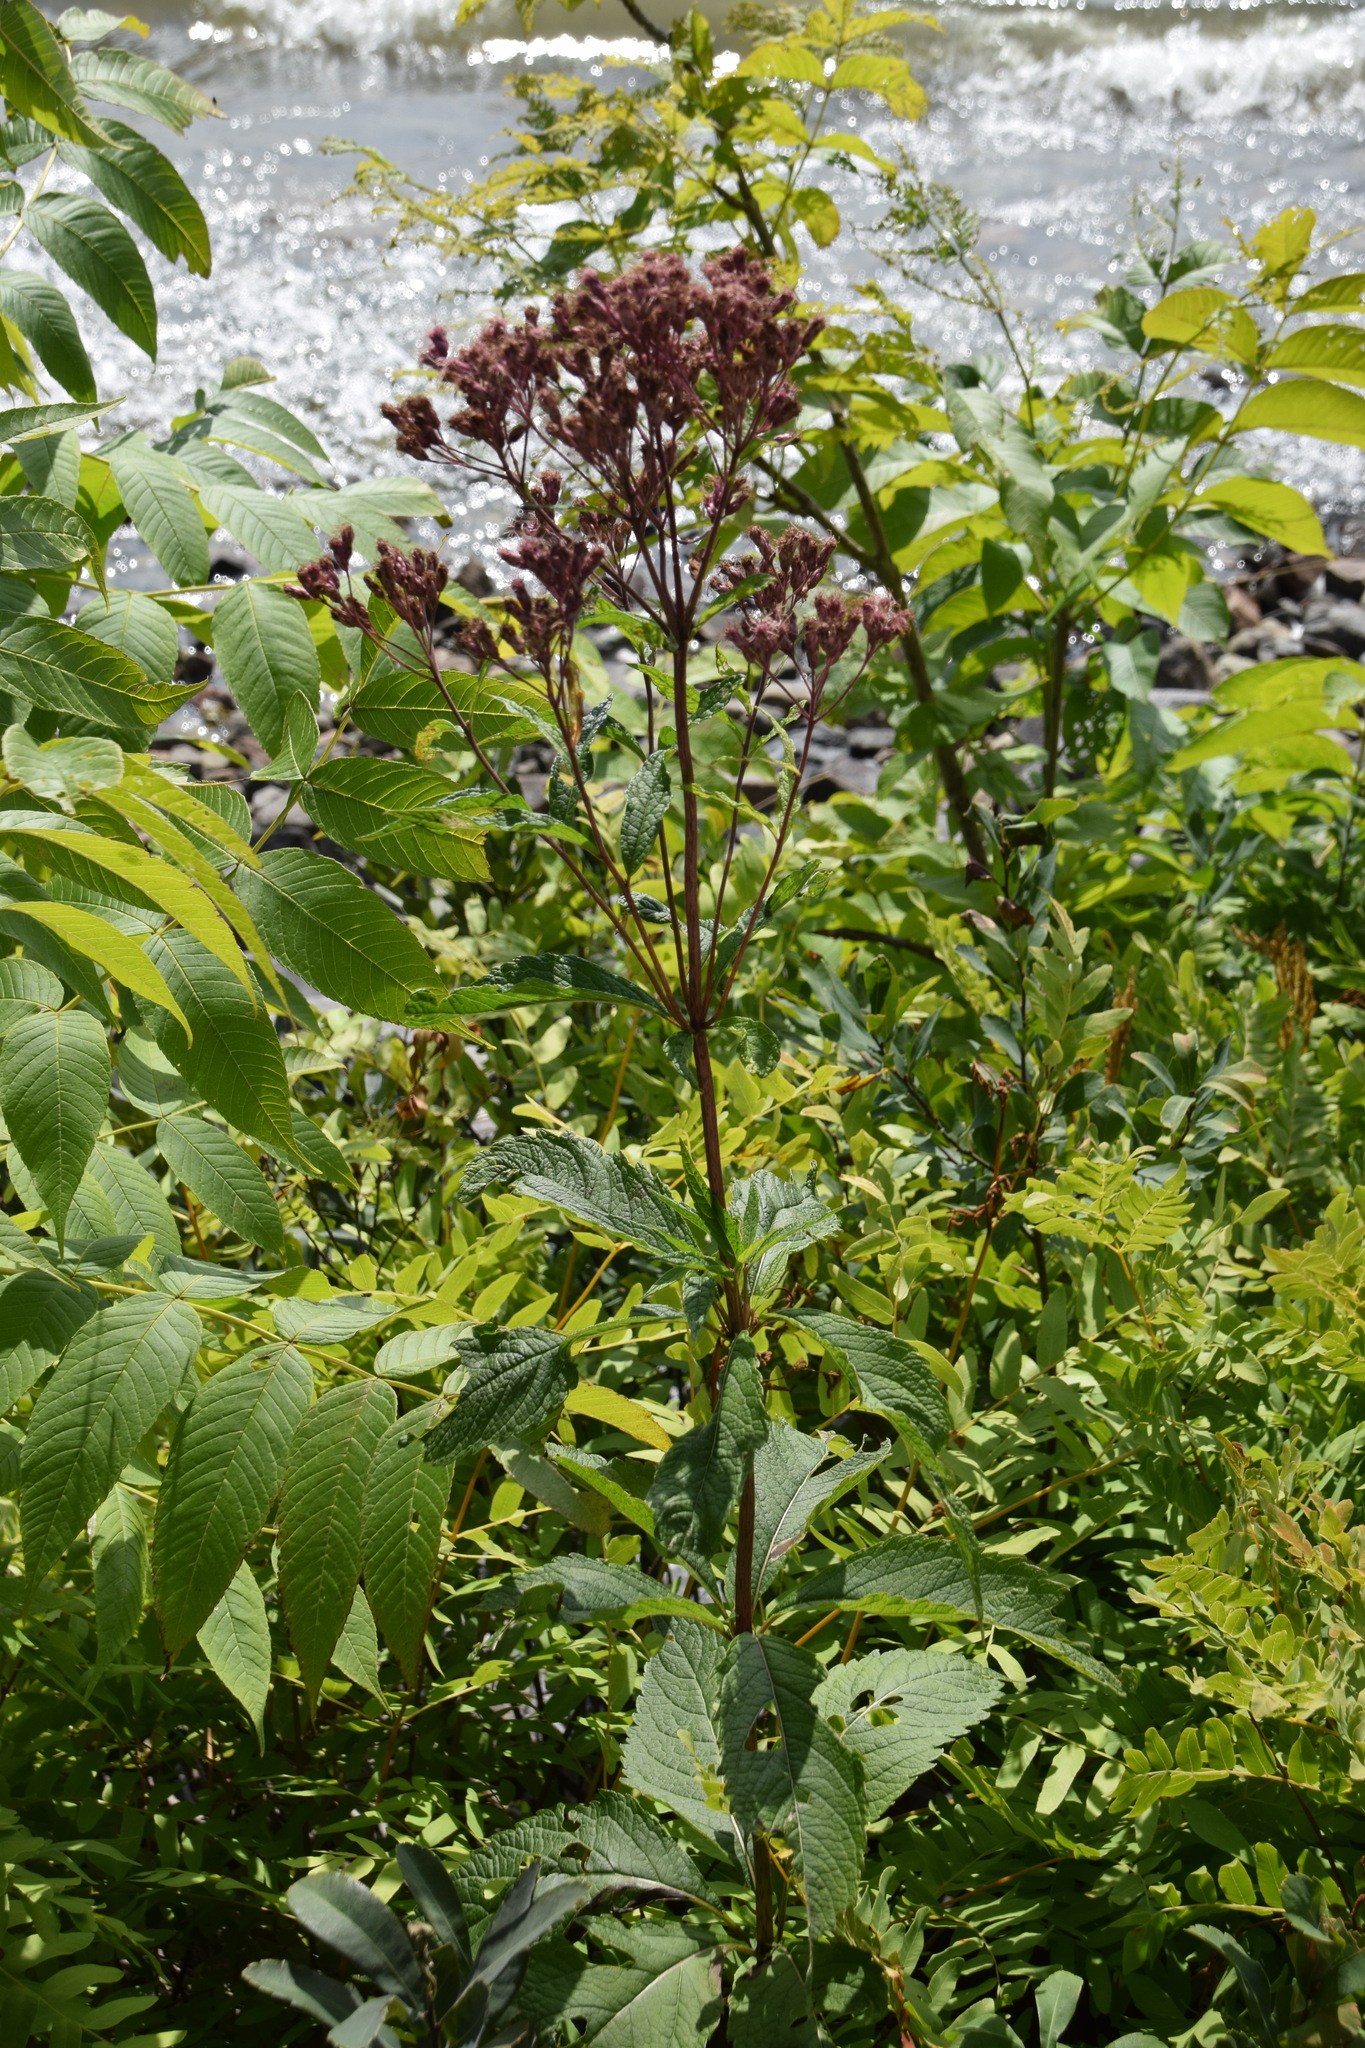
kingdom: Plantae
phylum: Tracheophyta
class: Magnoliopsida
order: Asterales
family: Asteraceae
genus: Eutrochium
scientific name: Eutrochium maculatum
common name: Spotted joe pye weed
